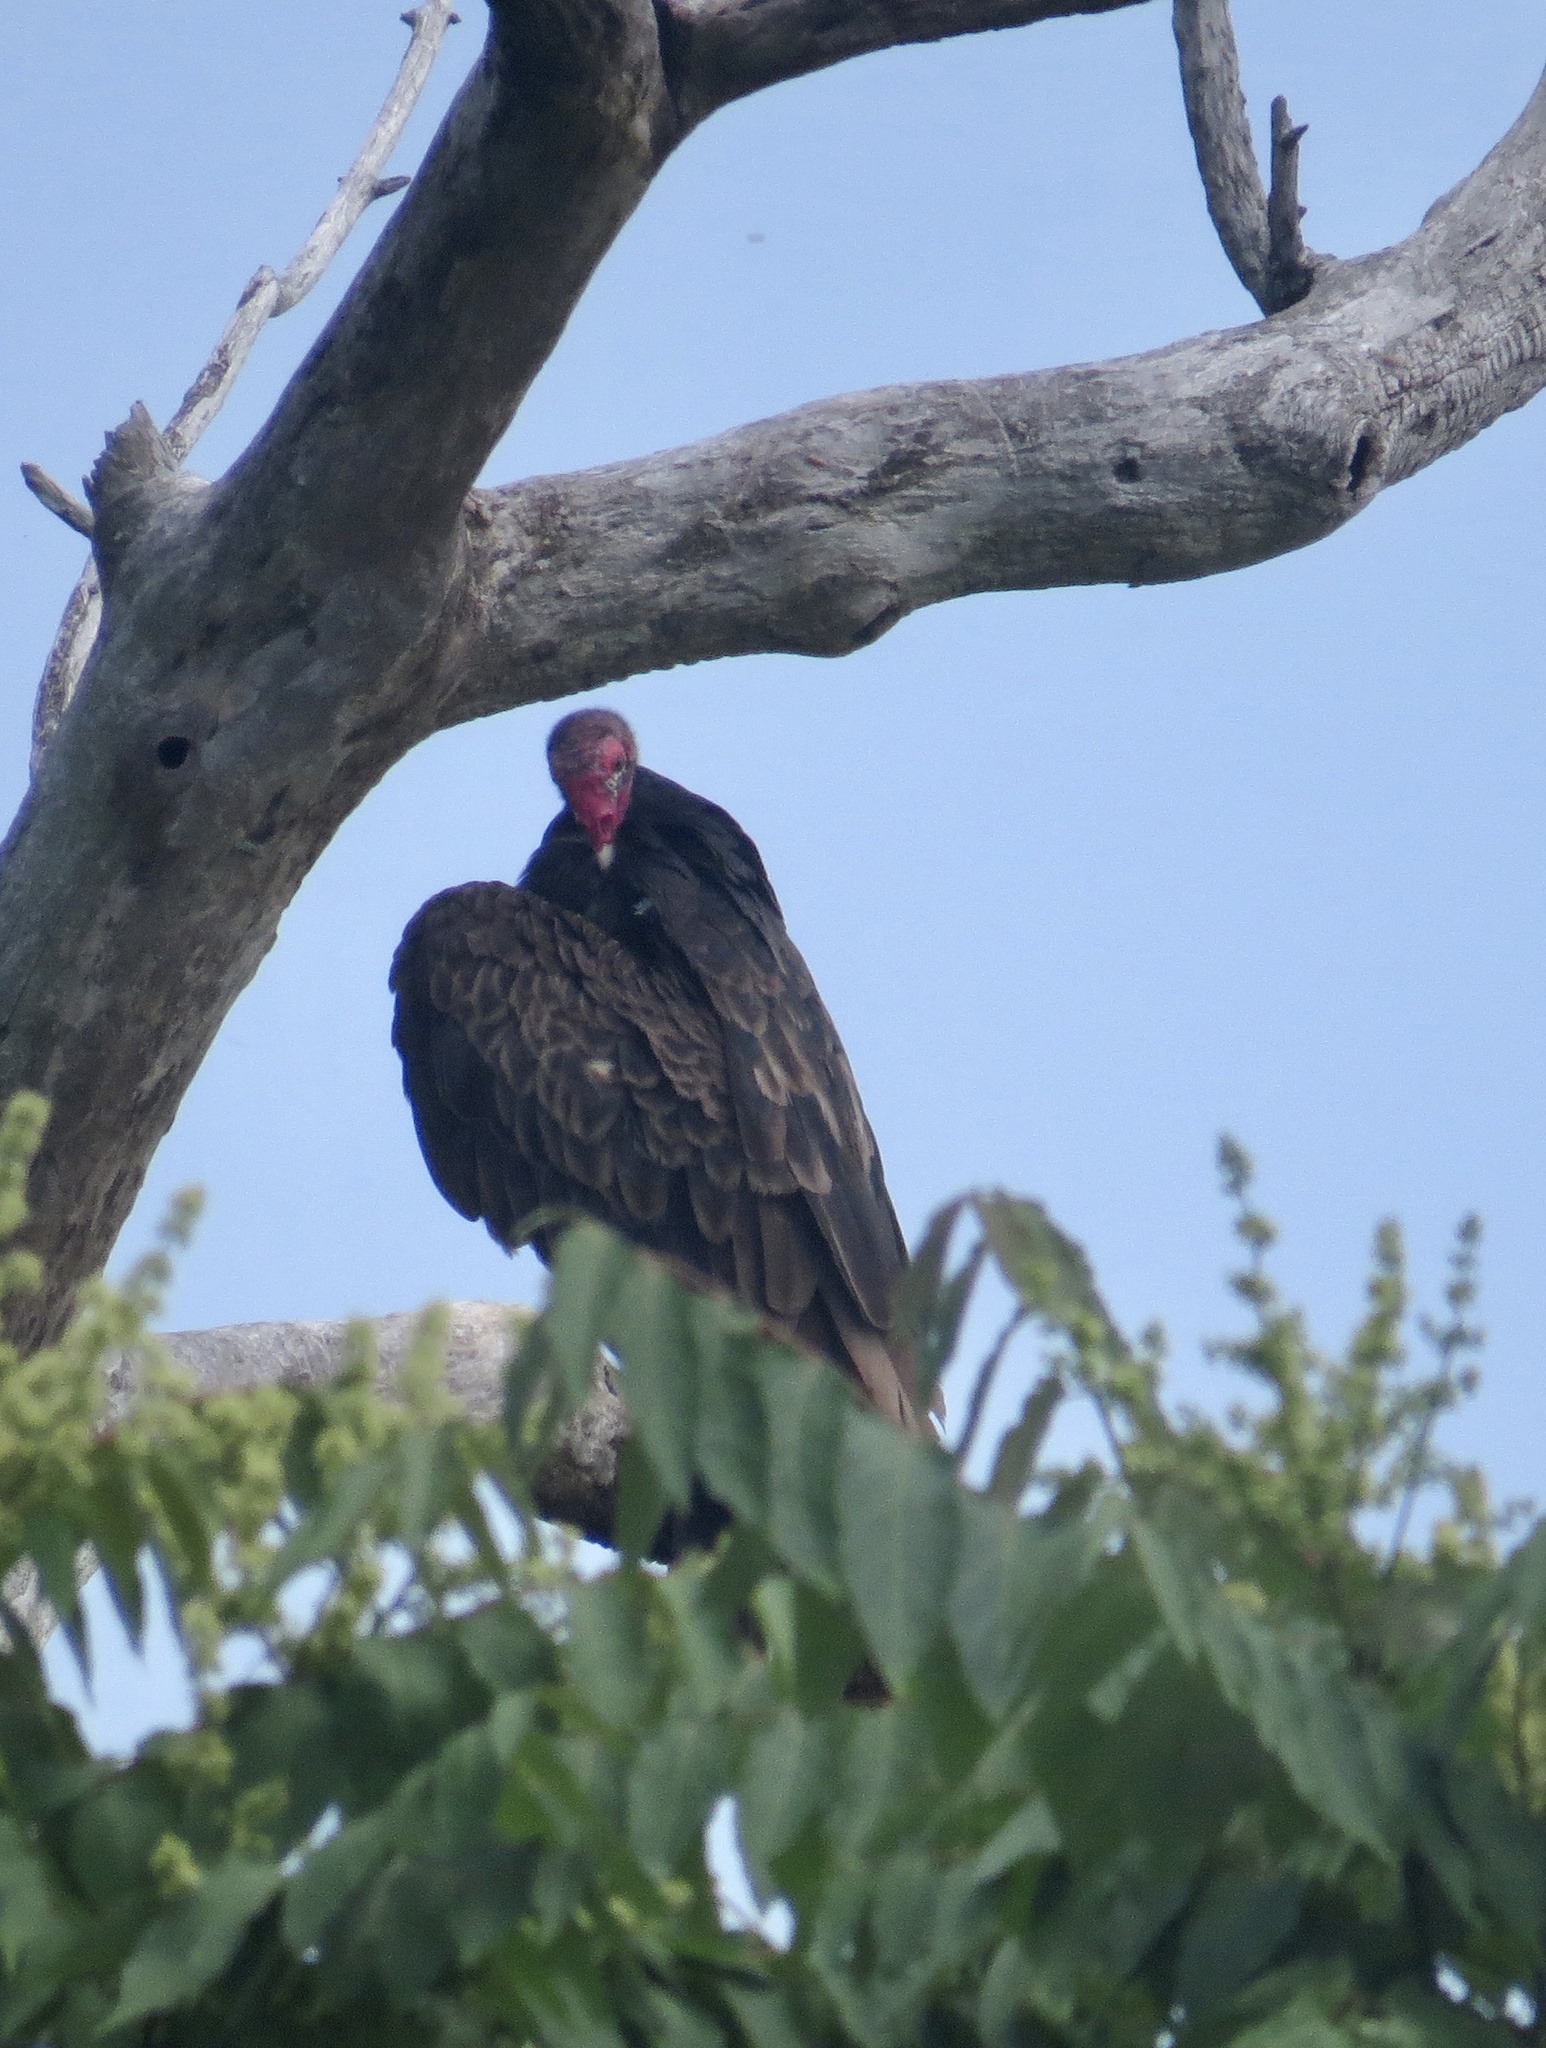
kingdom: Animalia
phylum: Chordata
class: Aves
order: Accipitriformes
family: Cathartidae
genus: Cathartes
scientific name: Cathartes aura
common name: Turkey vulture
